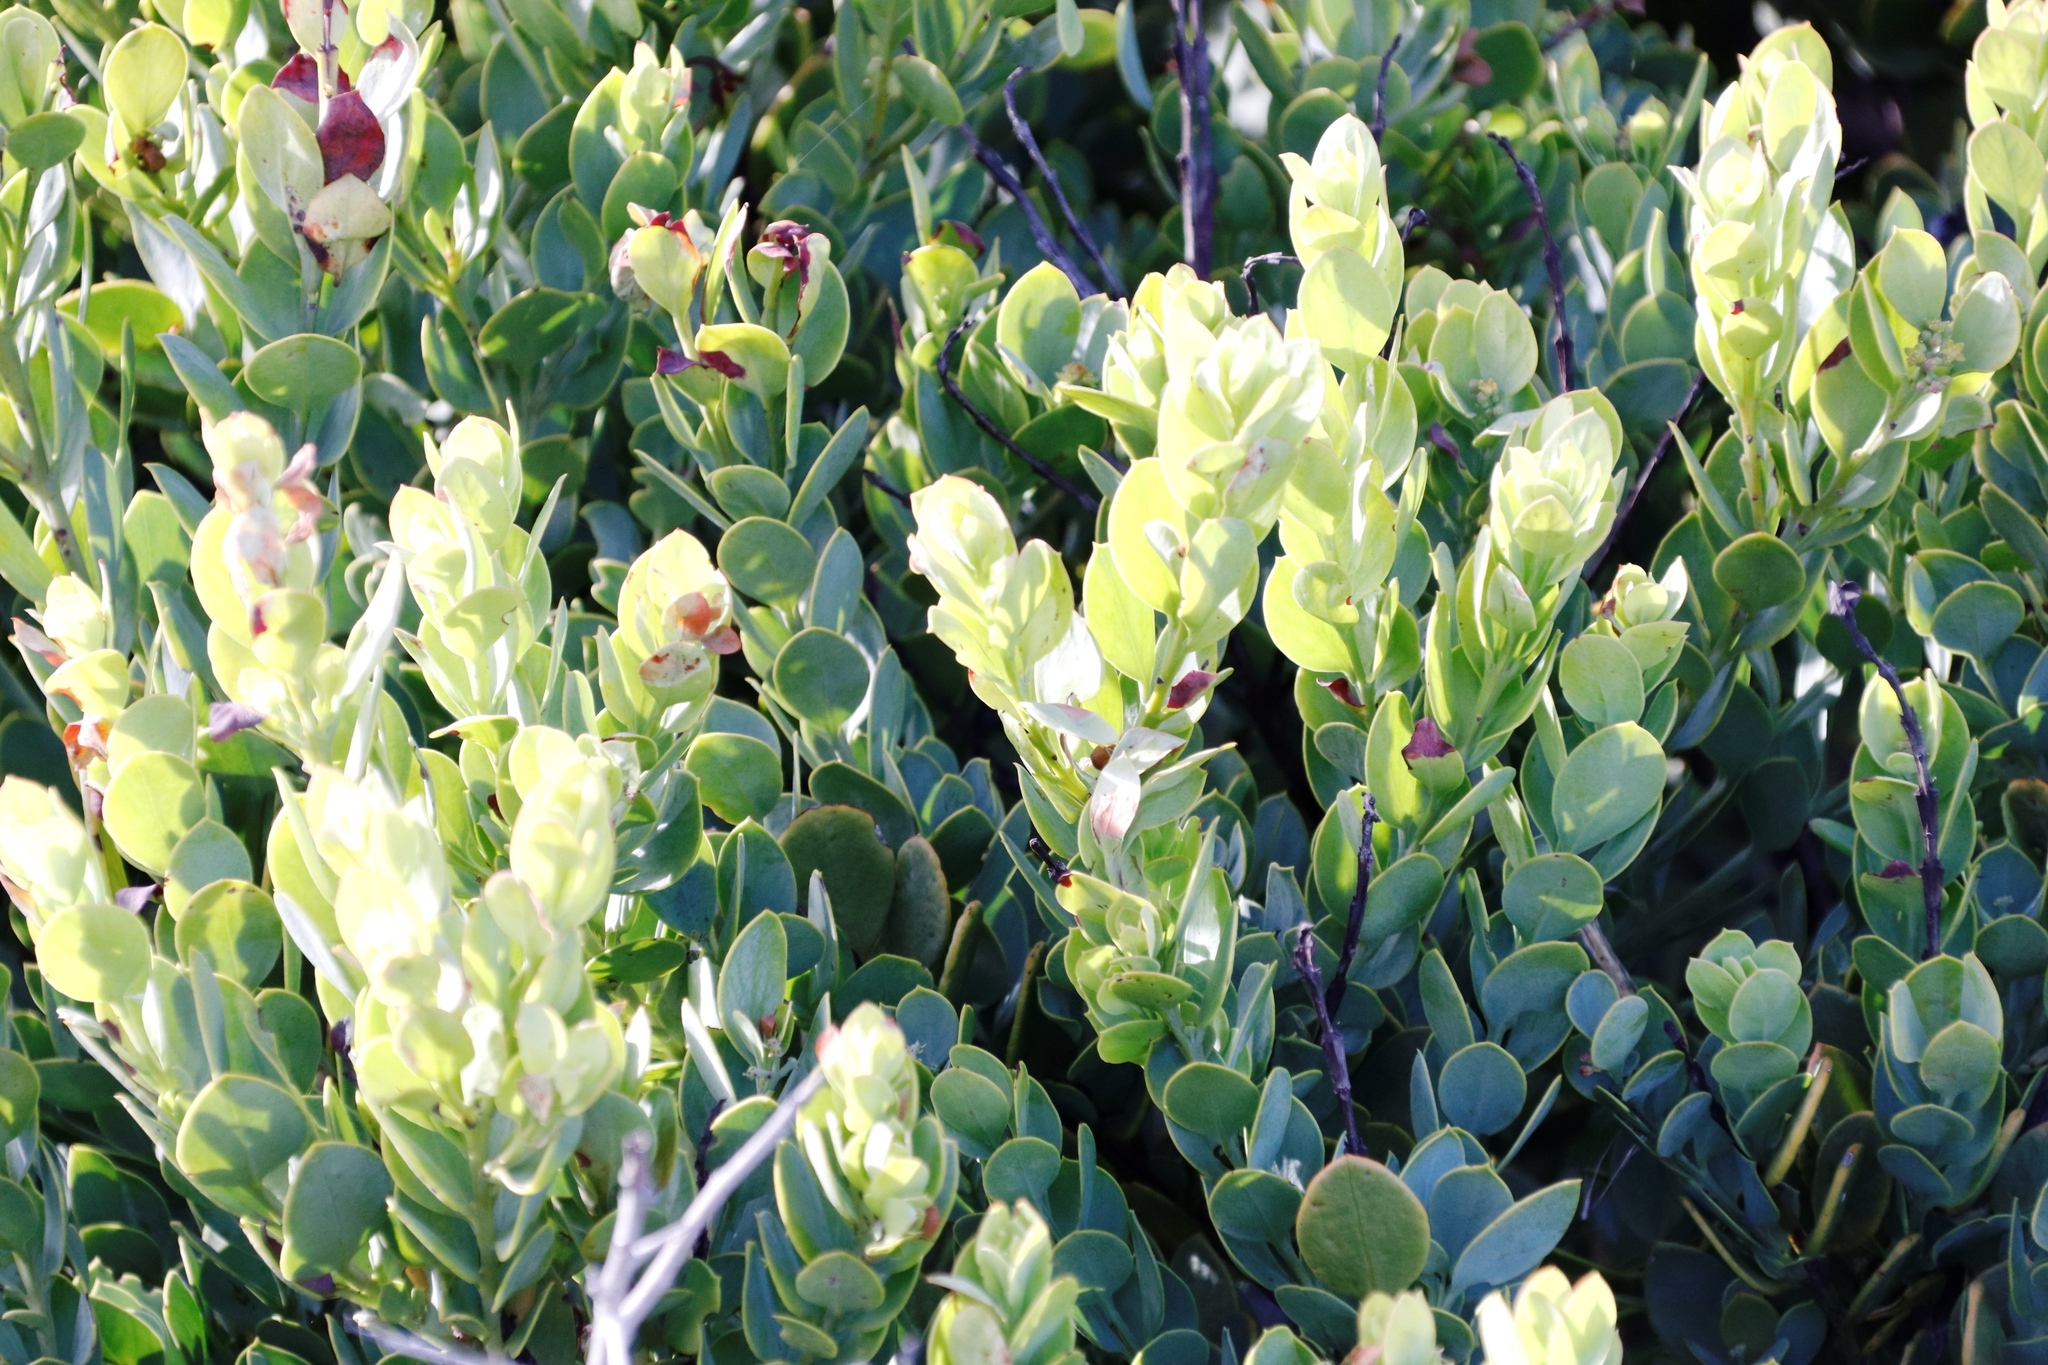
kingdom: Plantae
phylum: Tracheophyta
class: Magnoliopsida
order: Santalales
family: Santalaceae
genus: Osyris
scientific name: Osyris compressa
